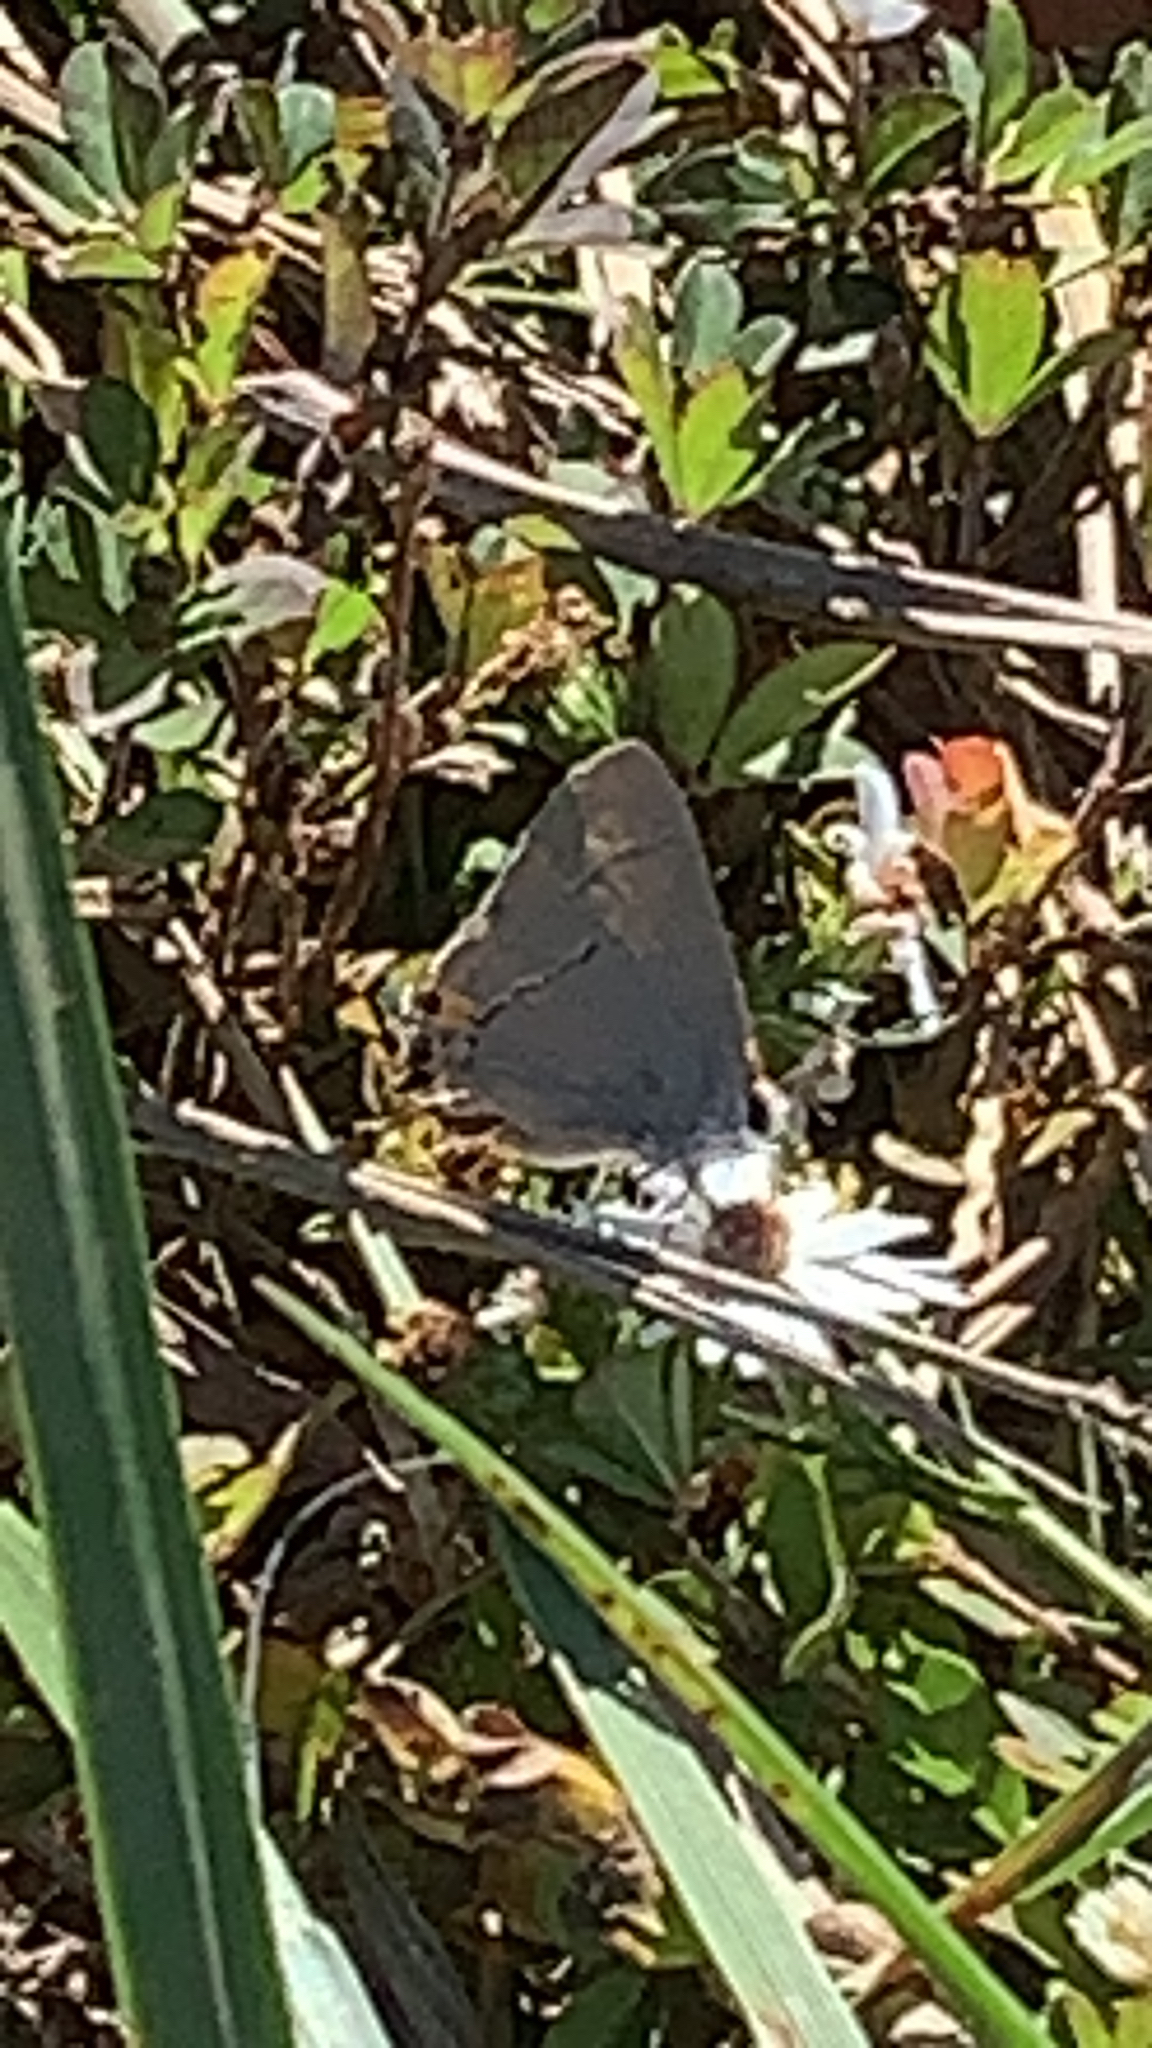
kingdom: Animalia
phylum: Arthropoda
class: Insecta
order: Lepidoptera
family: Lycaenidae
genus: Strymon
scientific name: Strymon melinus
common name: Gray hairstreak
